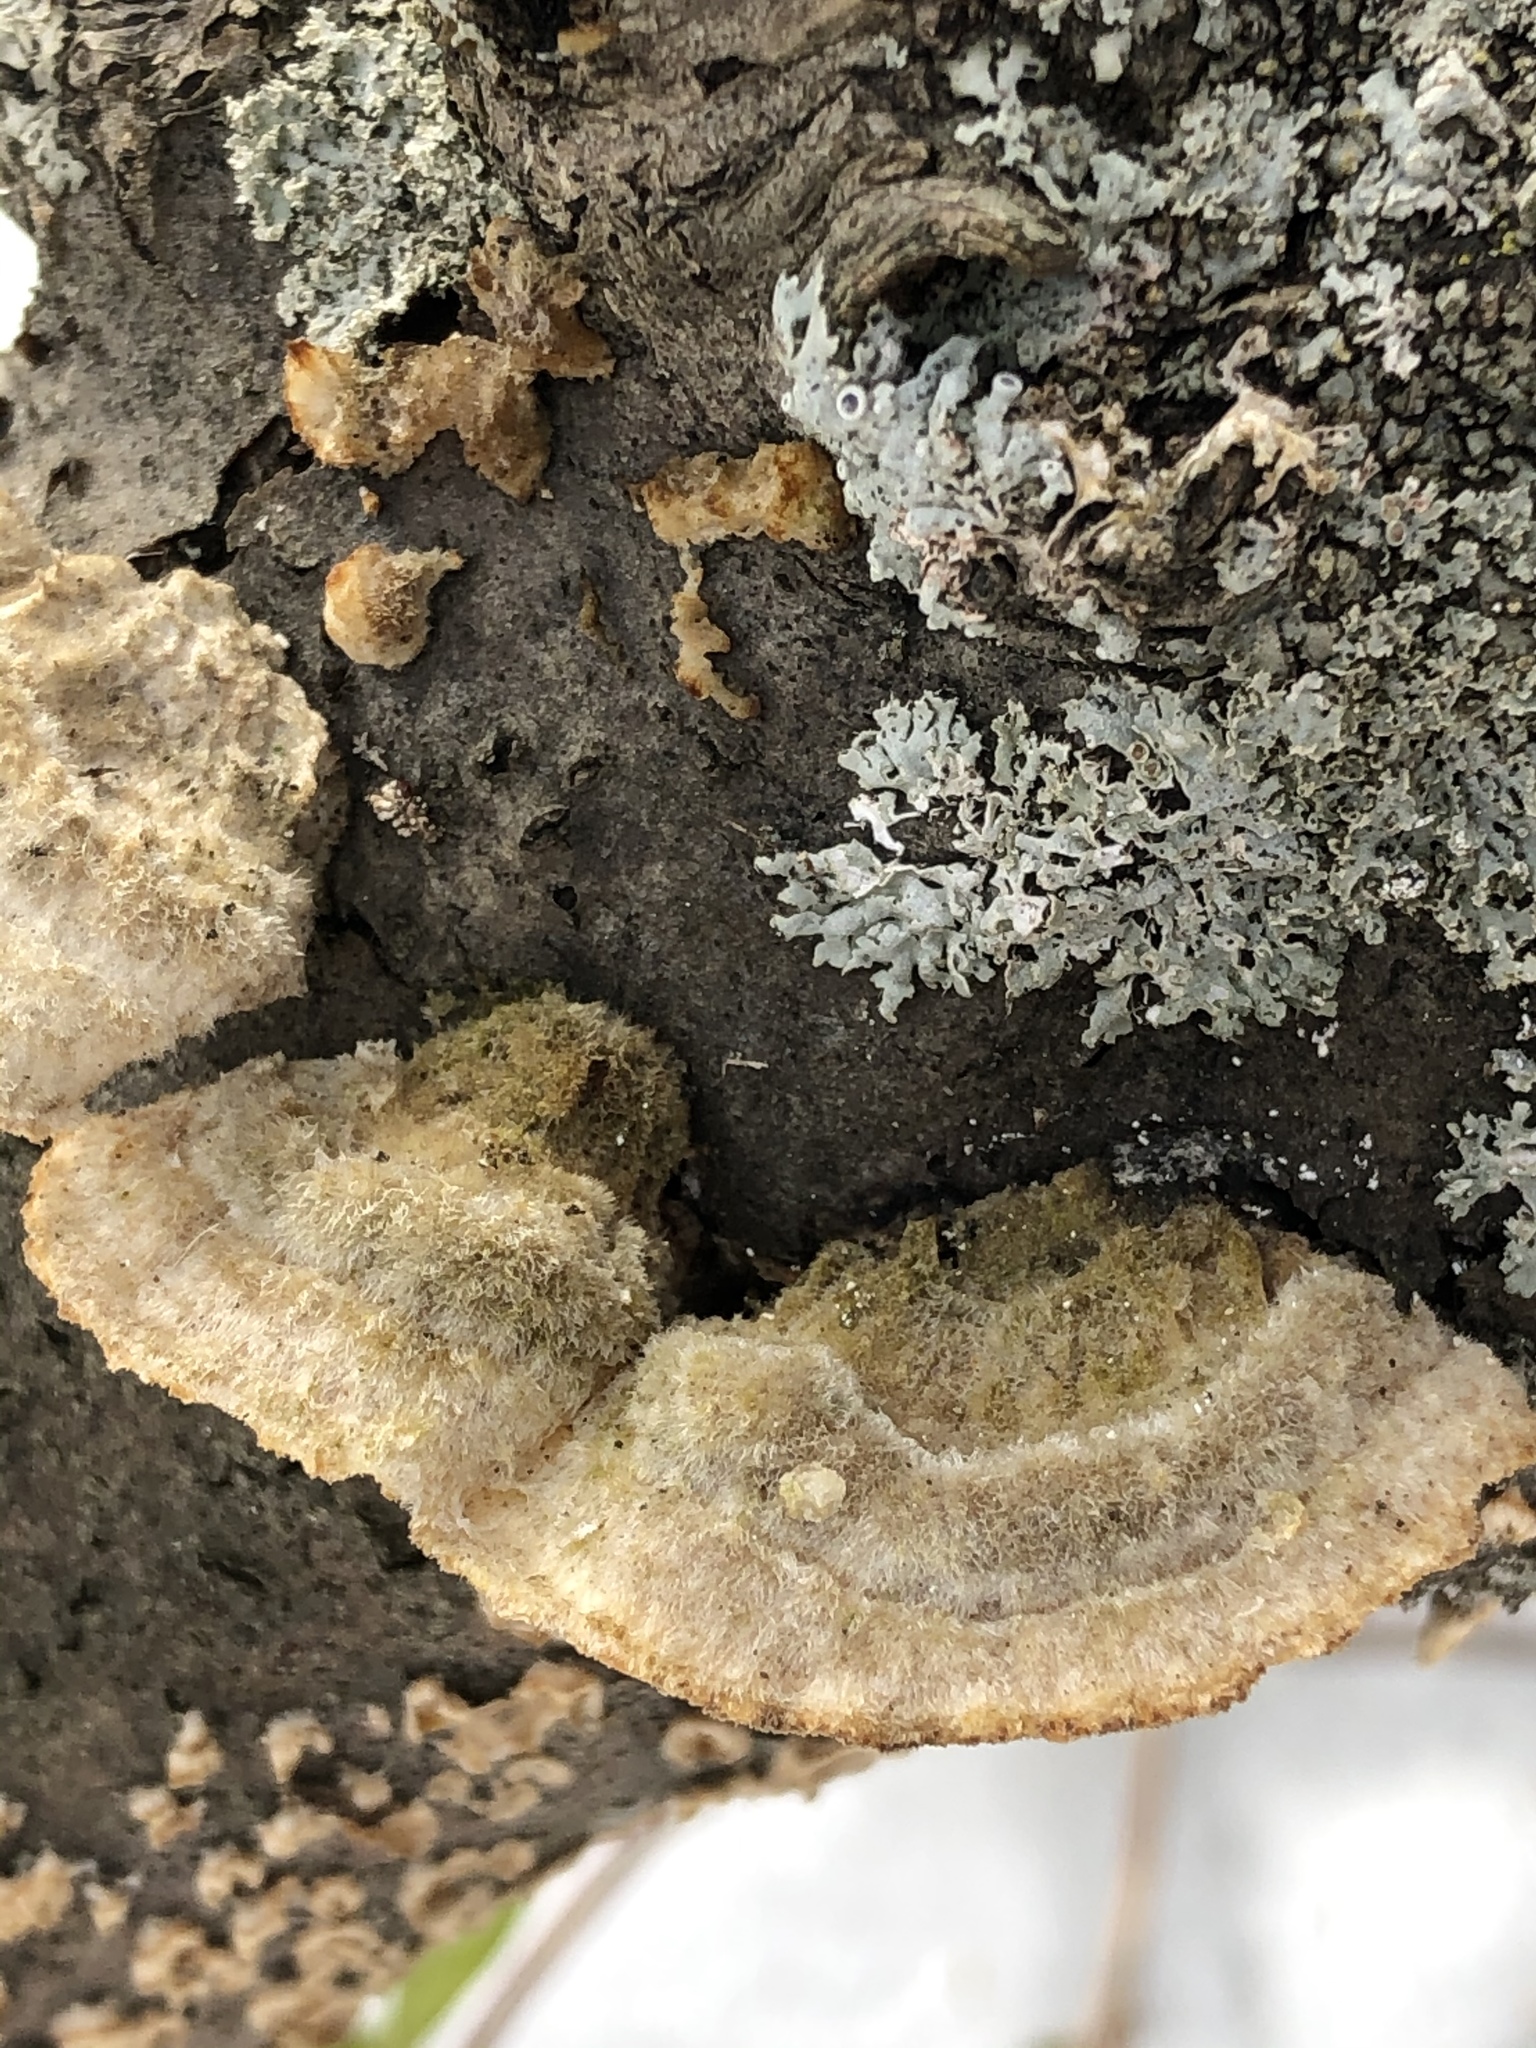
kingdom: Fungi
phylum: Basidiomycota
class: Agaricomycetes
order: Polyporales
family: Polyporaceae
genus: Trametes
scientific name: Trametes hirsuta
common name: Hairy bracket
